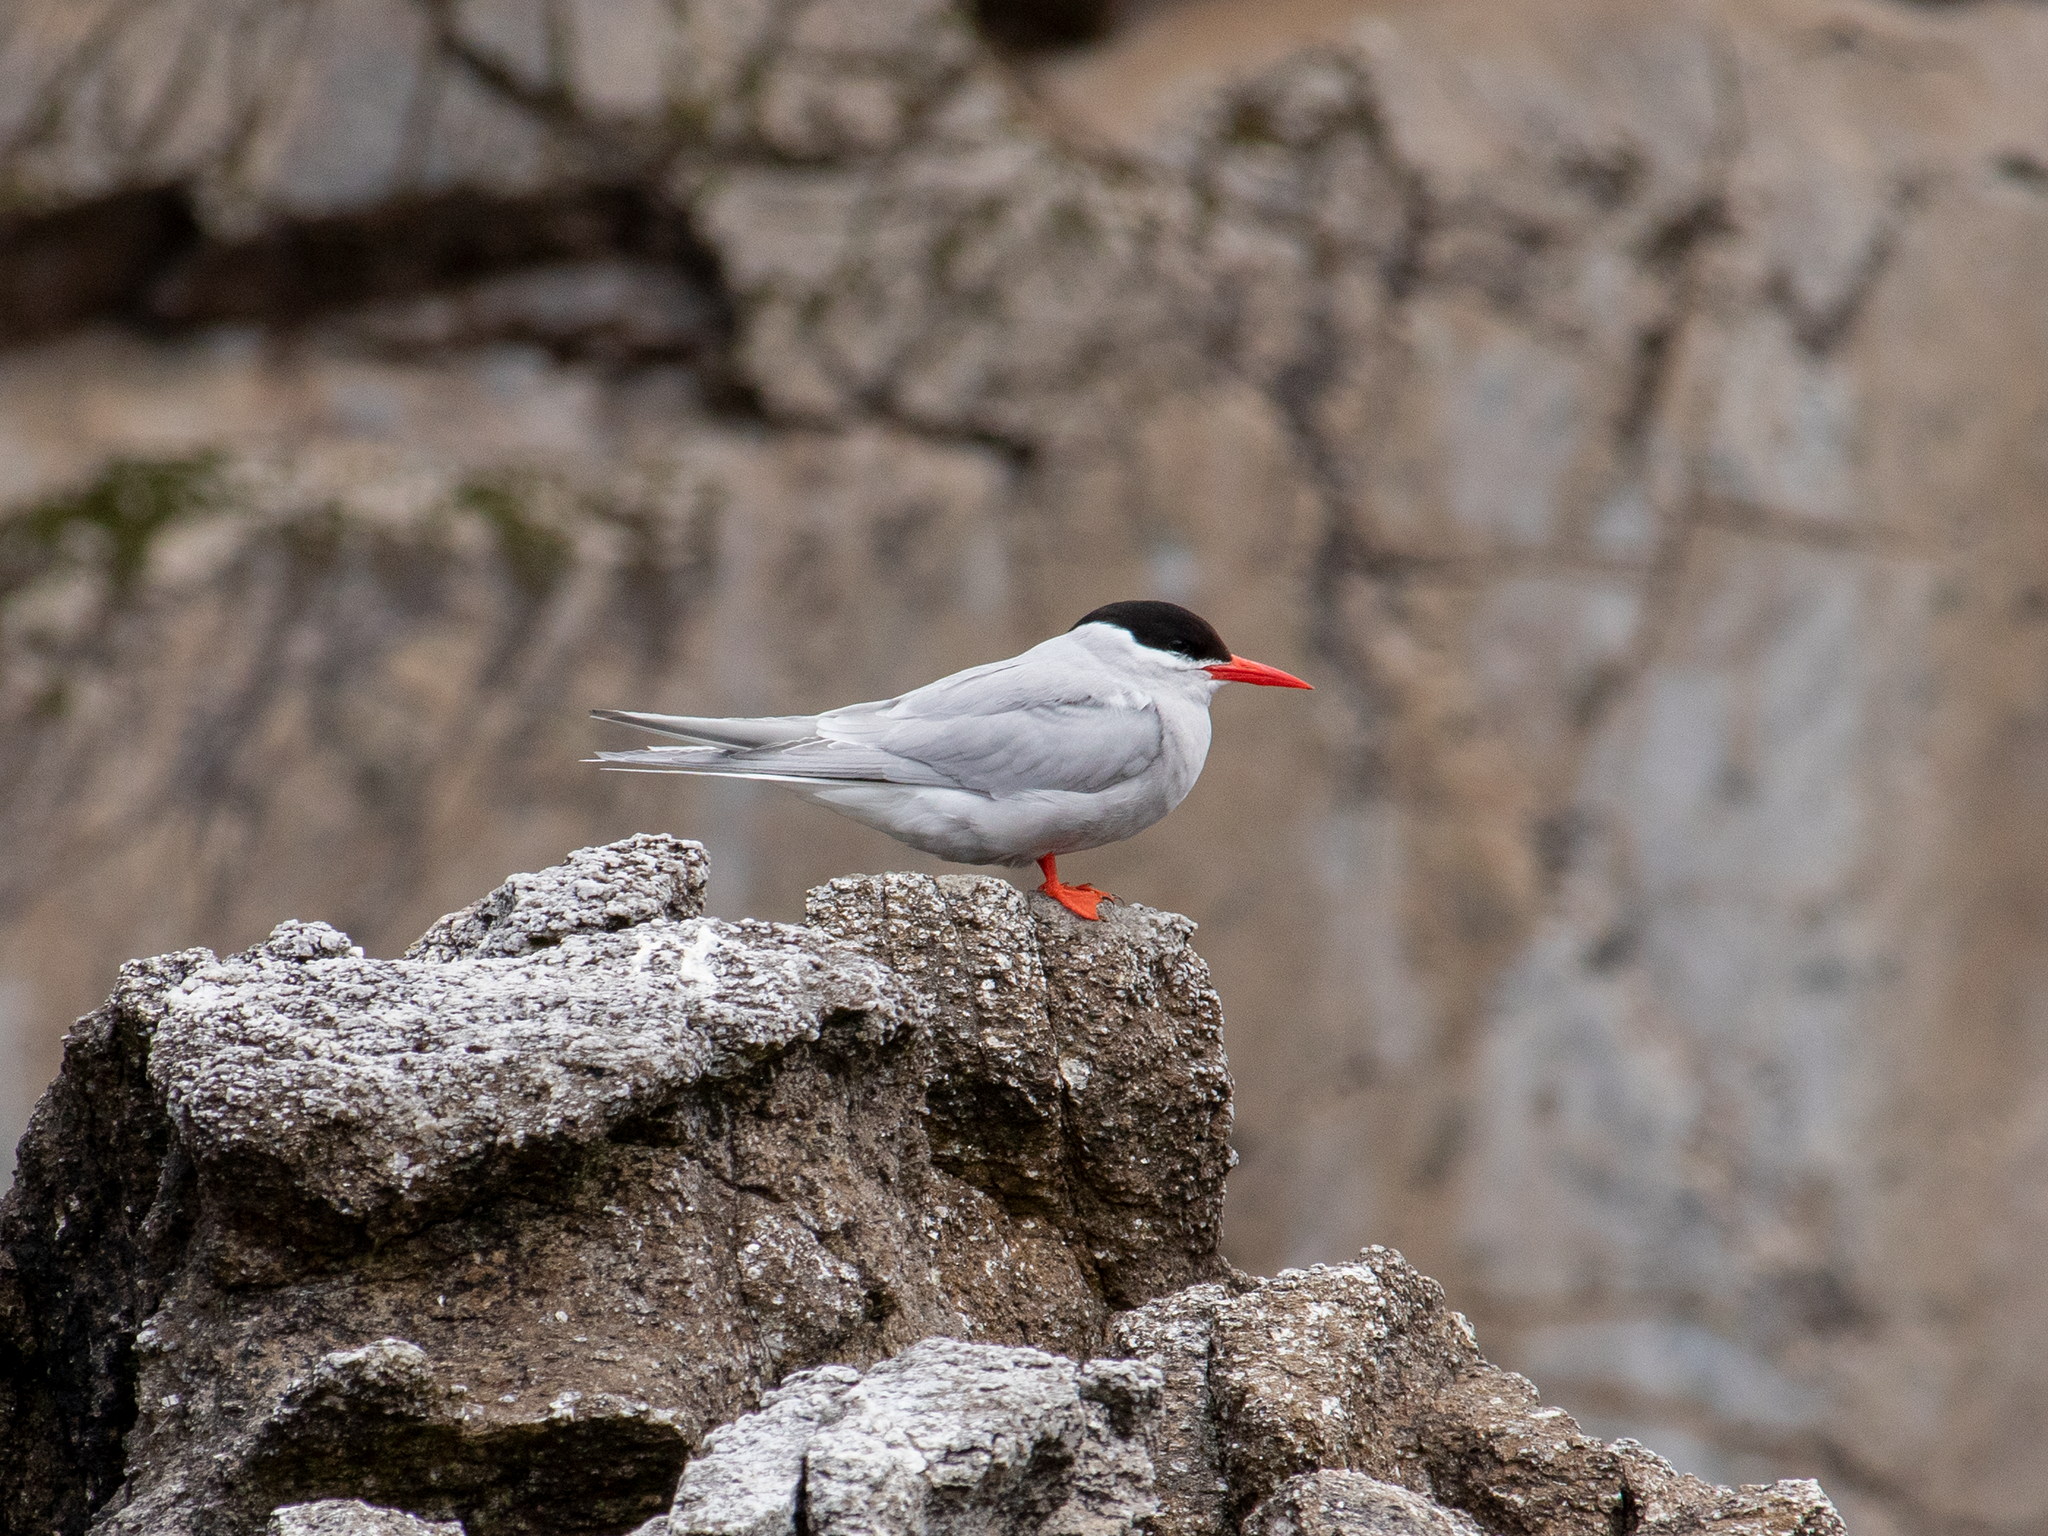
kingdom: Animalia
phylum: Chordata
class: Aves
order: Charadriiformes
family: Laridae
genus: Sterna
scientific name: Sterna vittata
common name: Antarctic tern
